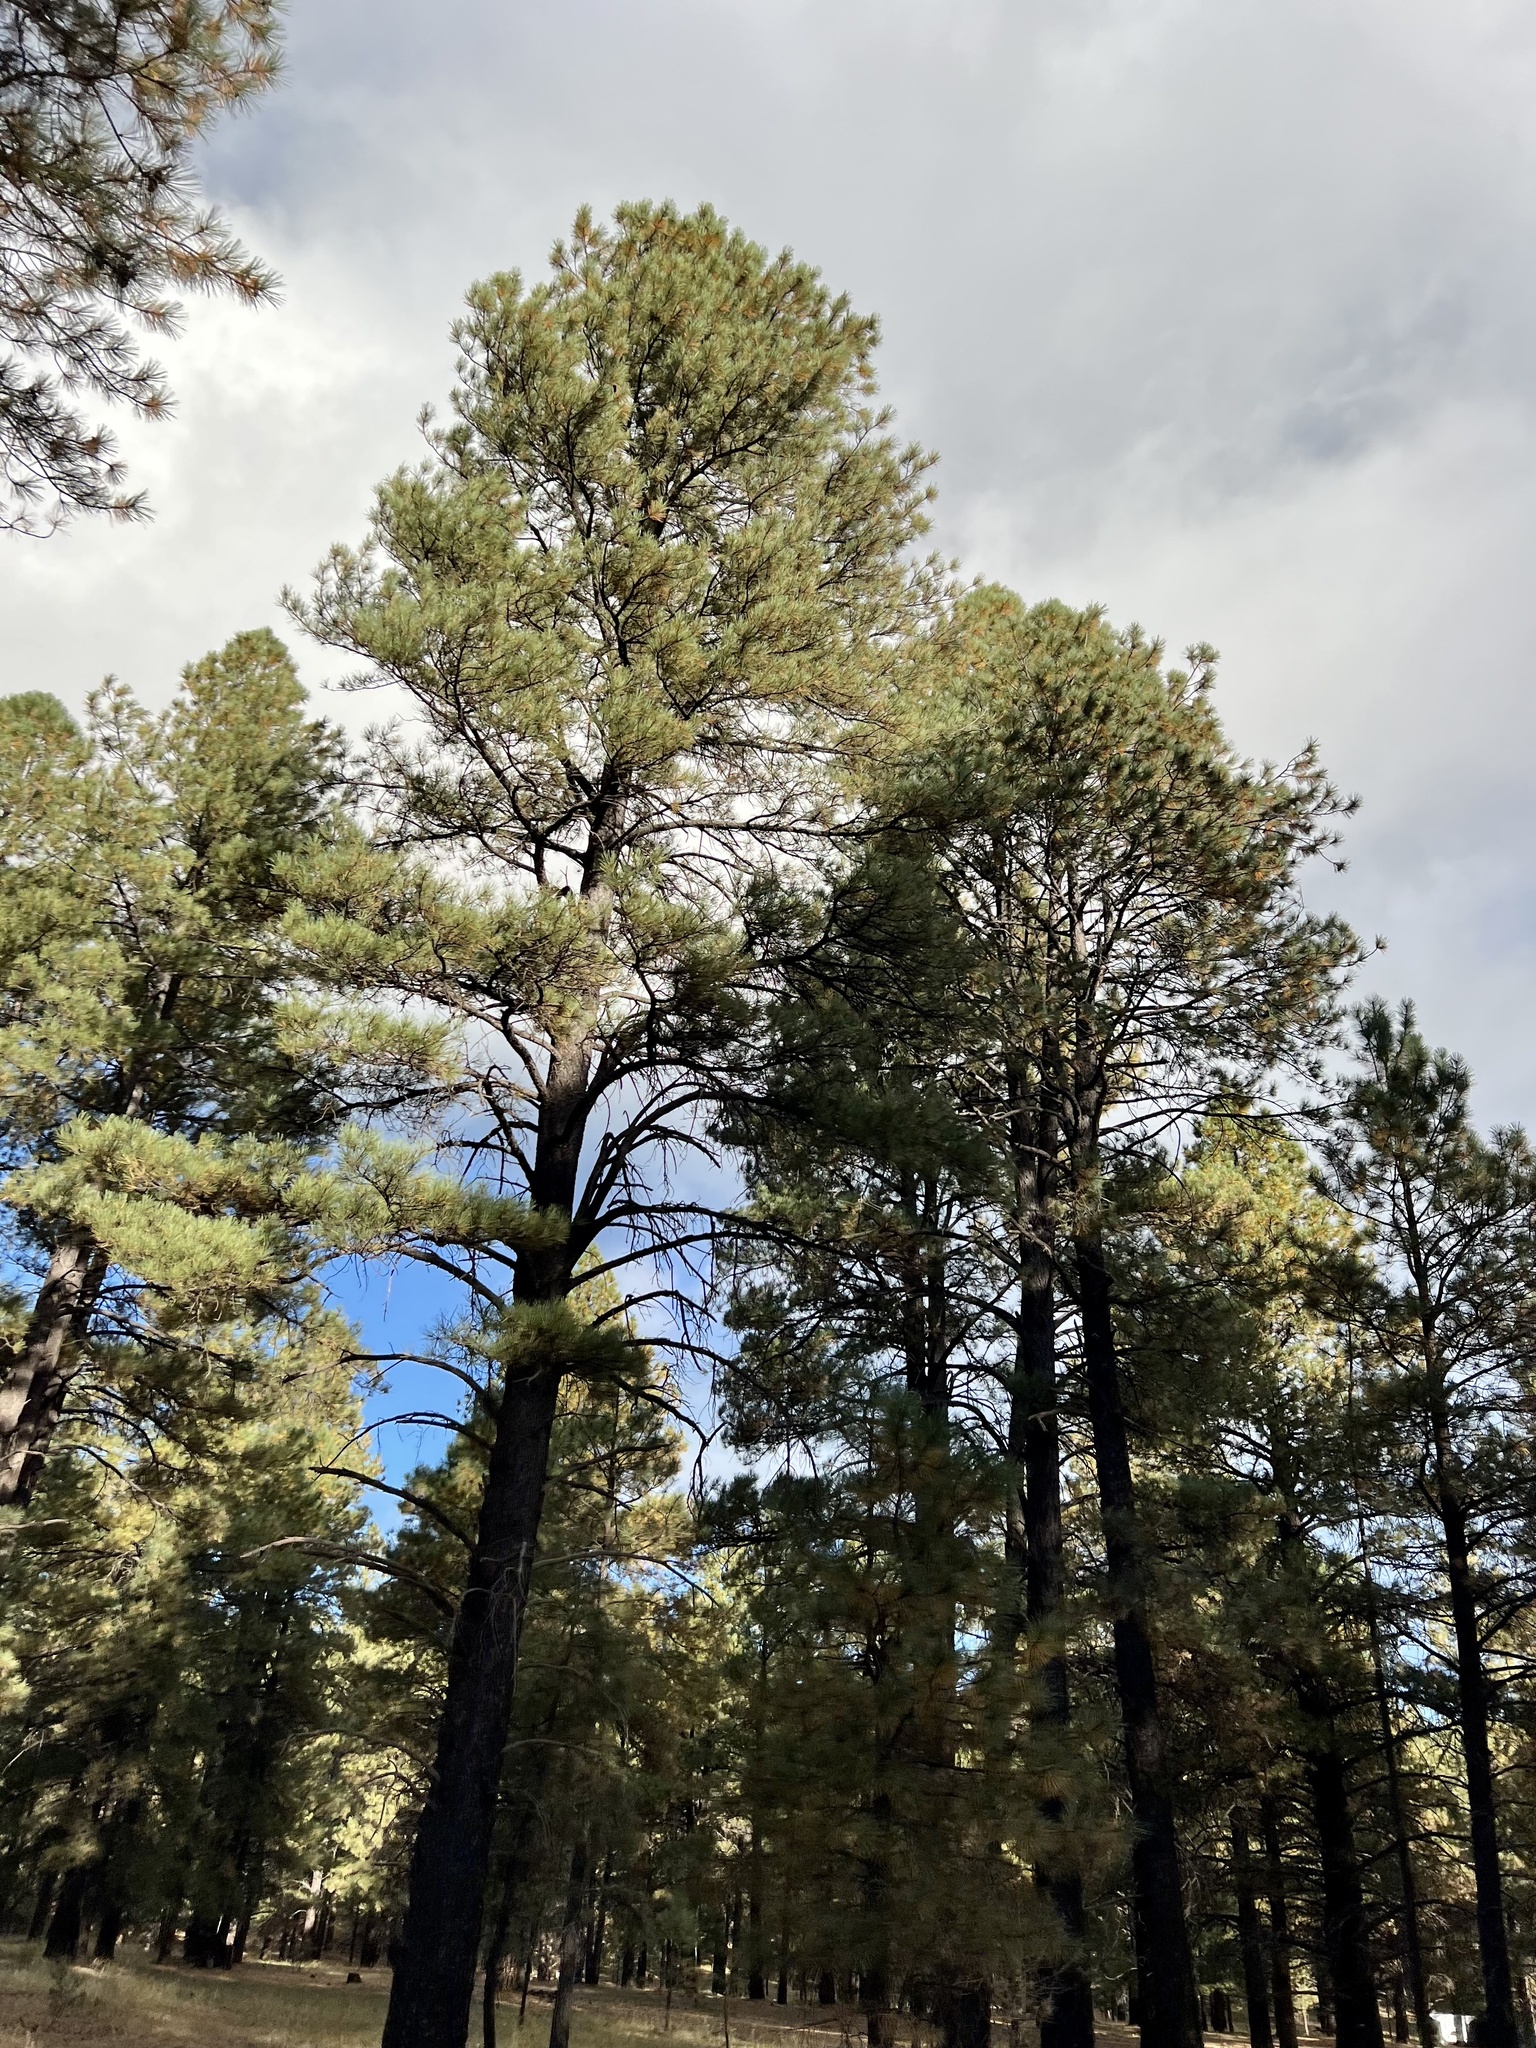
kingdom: Plantae
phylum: Tracheophyta
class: Pinopsida
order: Pinales
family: Pinaceae
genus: Pinus
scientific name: Pinus ponderosa
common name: Western yellow-pine
